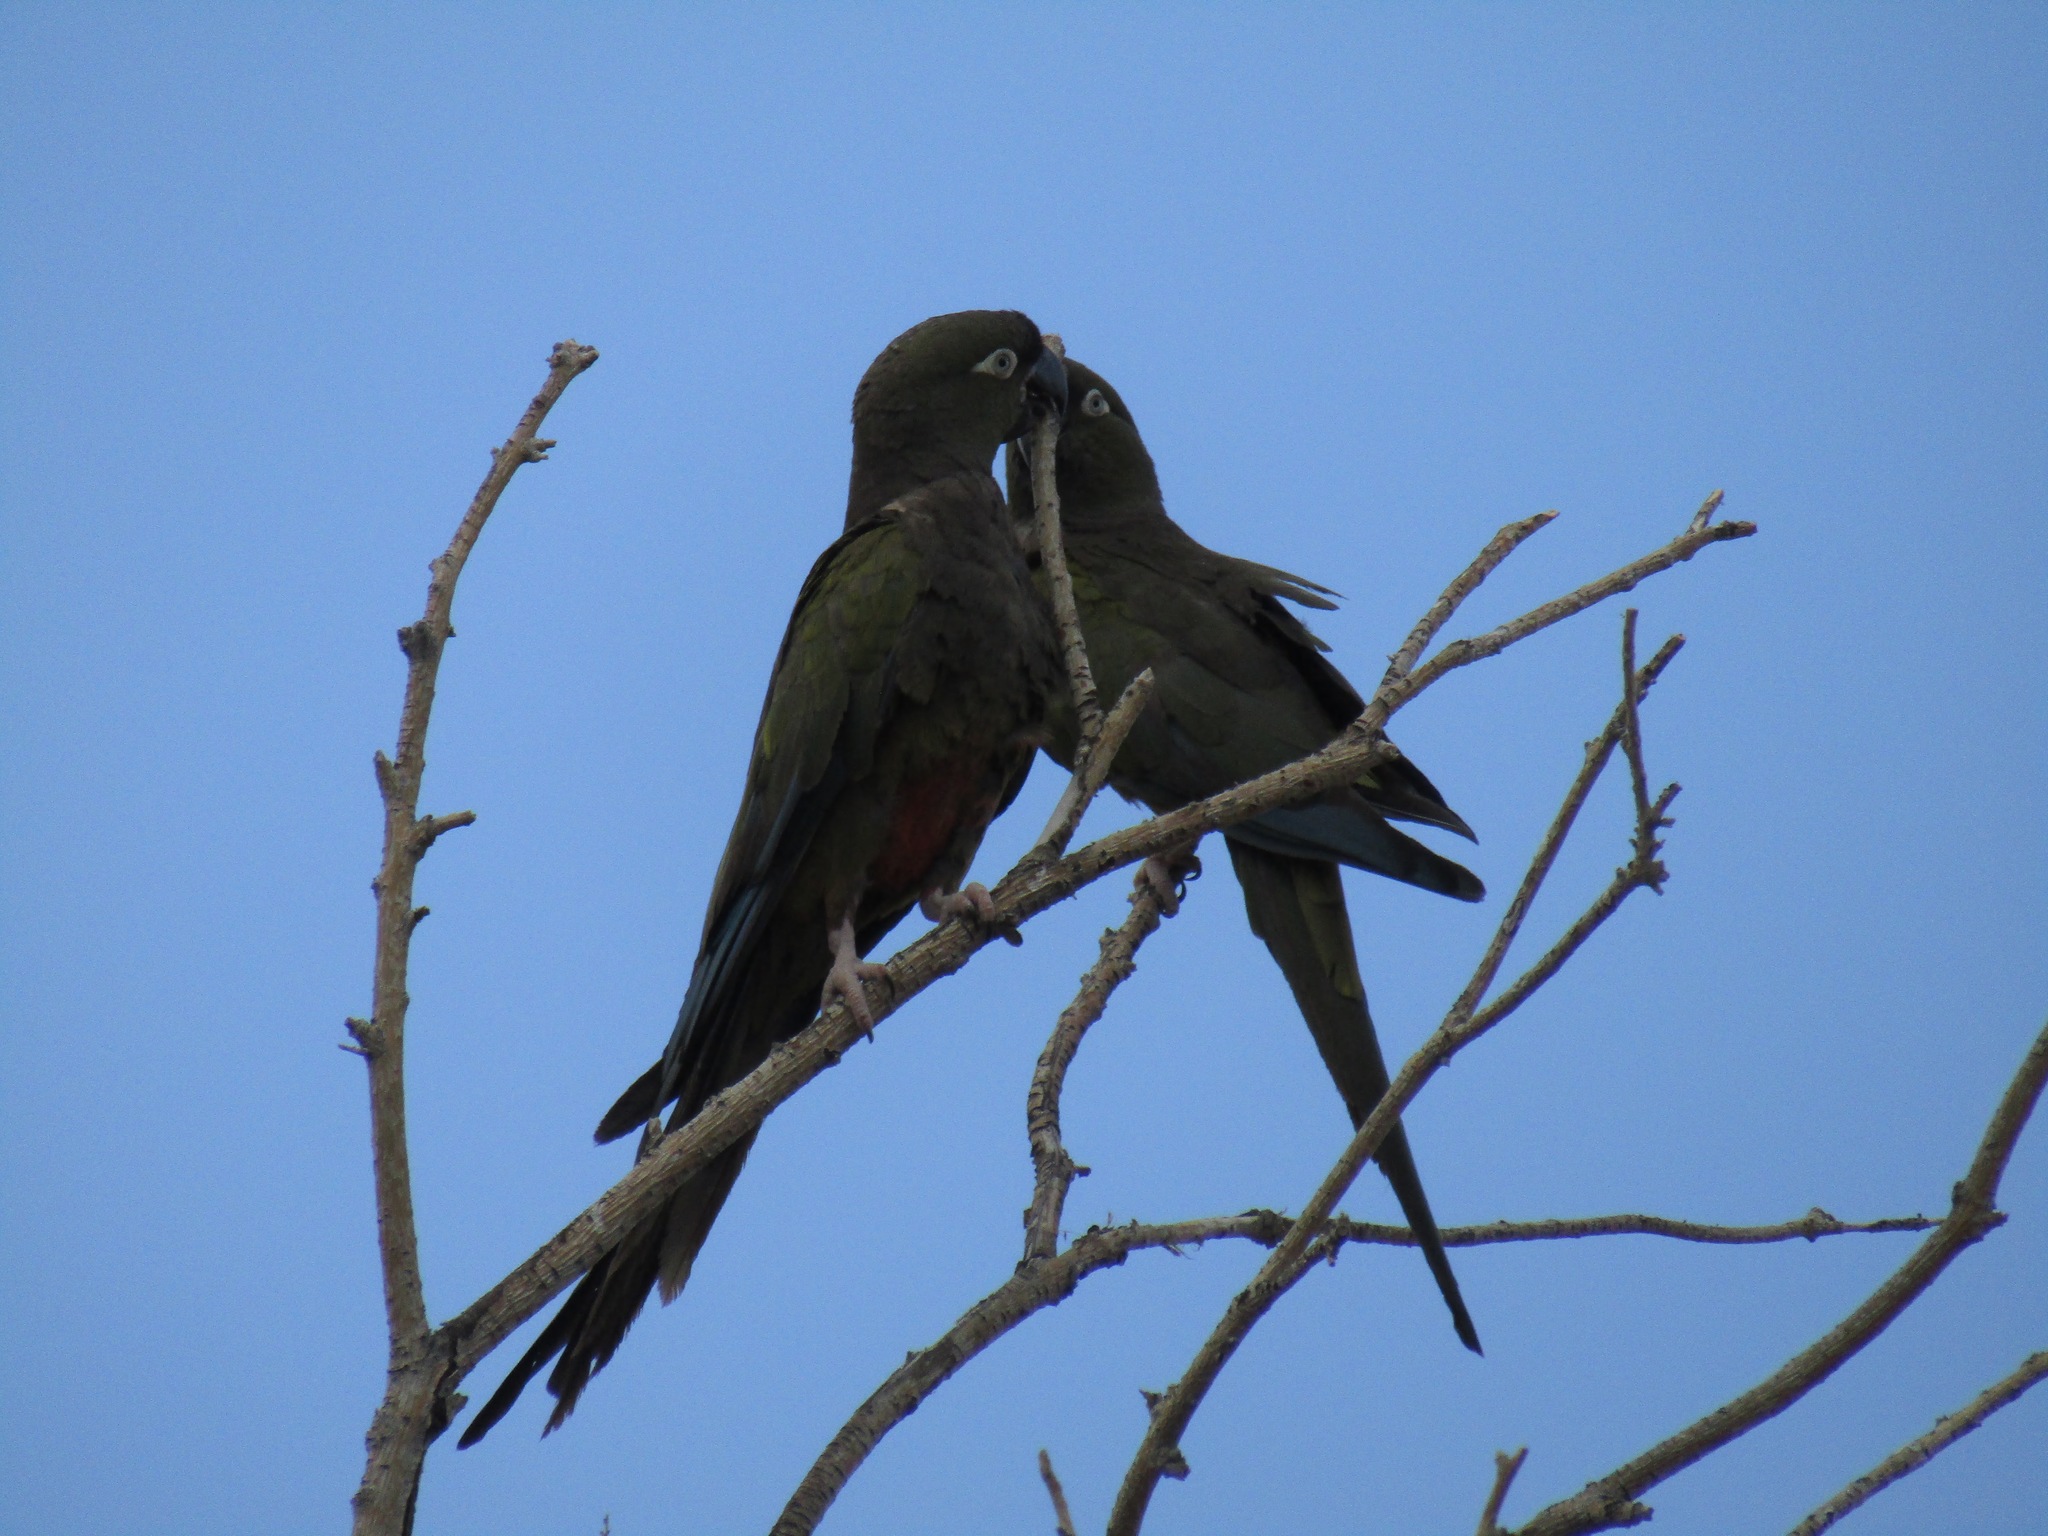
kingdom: Animalia
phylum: Chordata
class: Aves
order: Psittaciformes
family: Psittacidae
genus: Cyanoliseus
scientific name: Cyanoliseus patagonus
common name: Burrowing parrot
